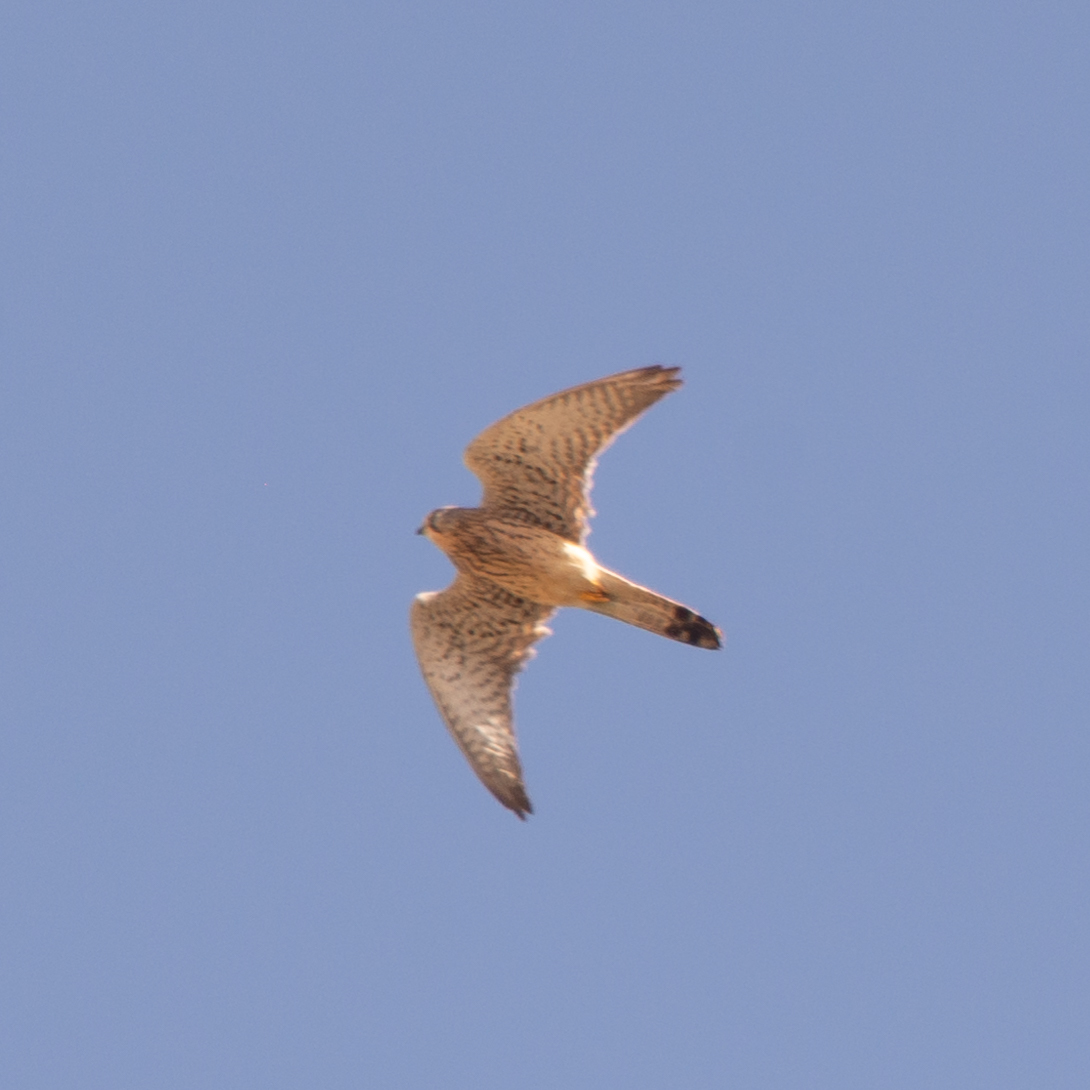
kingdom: Animalia
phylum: Chordata
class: Aves
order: Falconiformes
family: Falconidae
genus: Falco
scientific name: Falco tinnunculus
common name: Common kestrel
